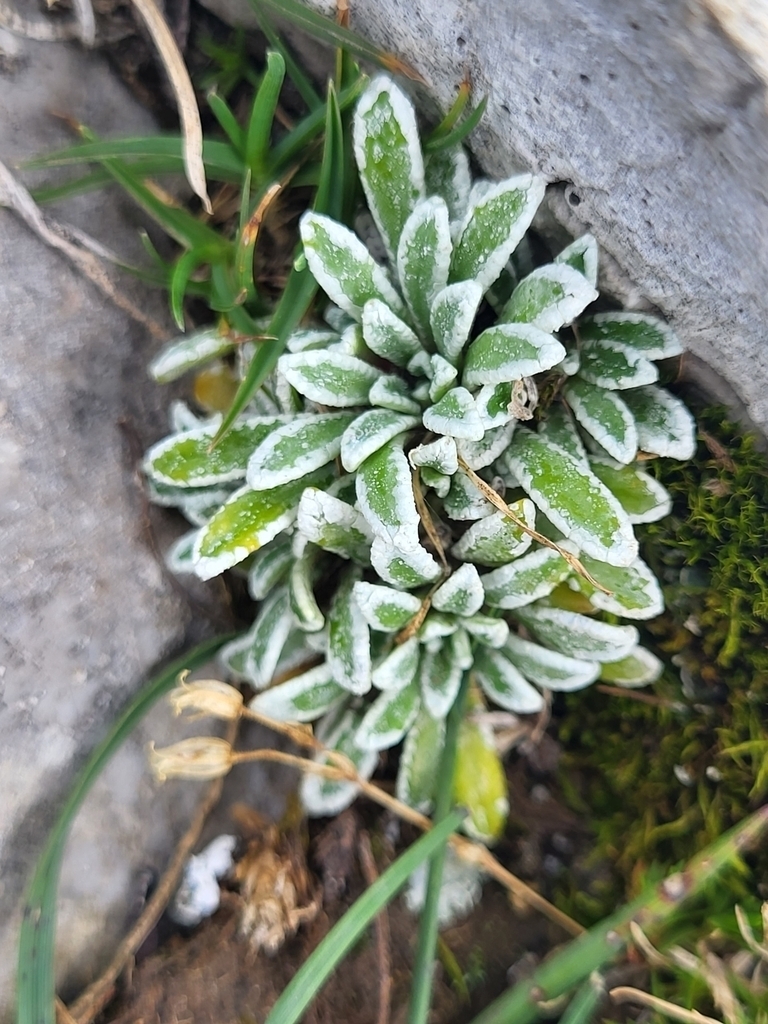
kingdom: Plantae
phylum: Tracheophyta
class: Magnoliopsida
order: Saxifragales
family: Saxifragaceae
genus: Saxifraga
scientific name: Saxifraga crustata
